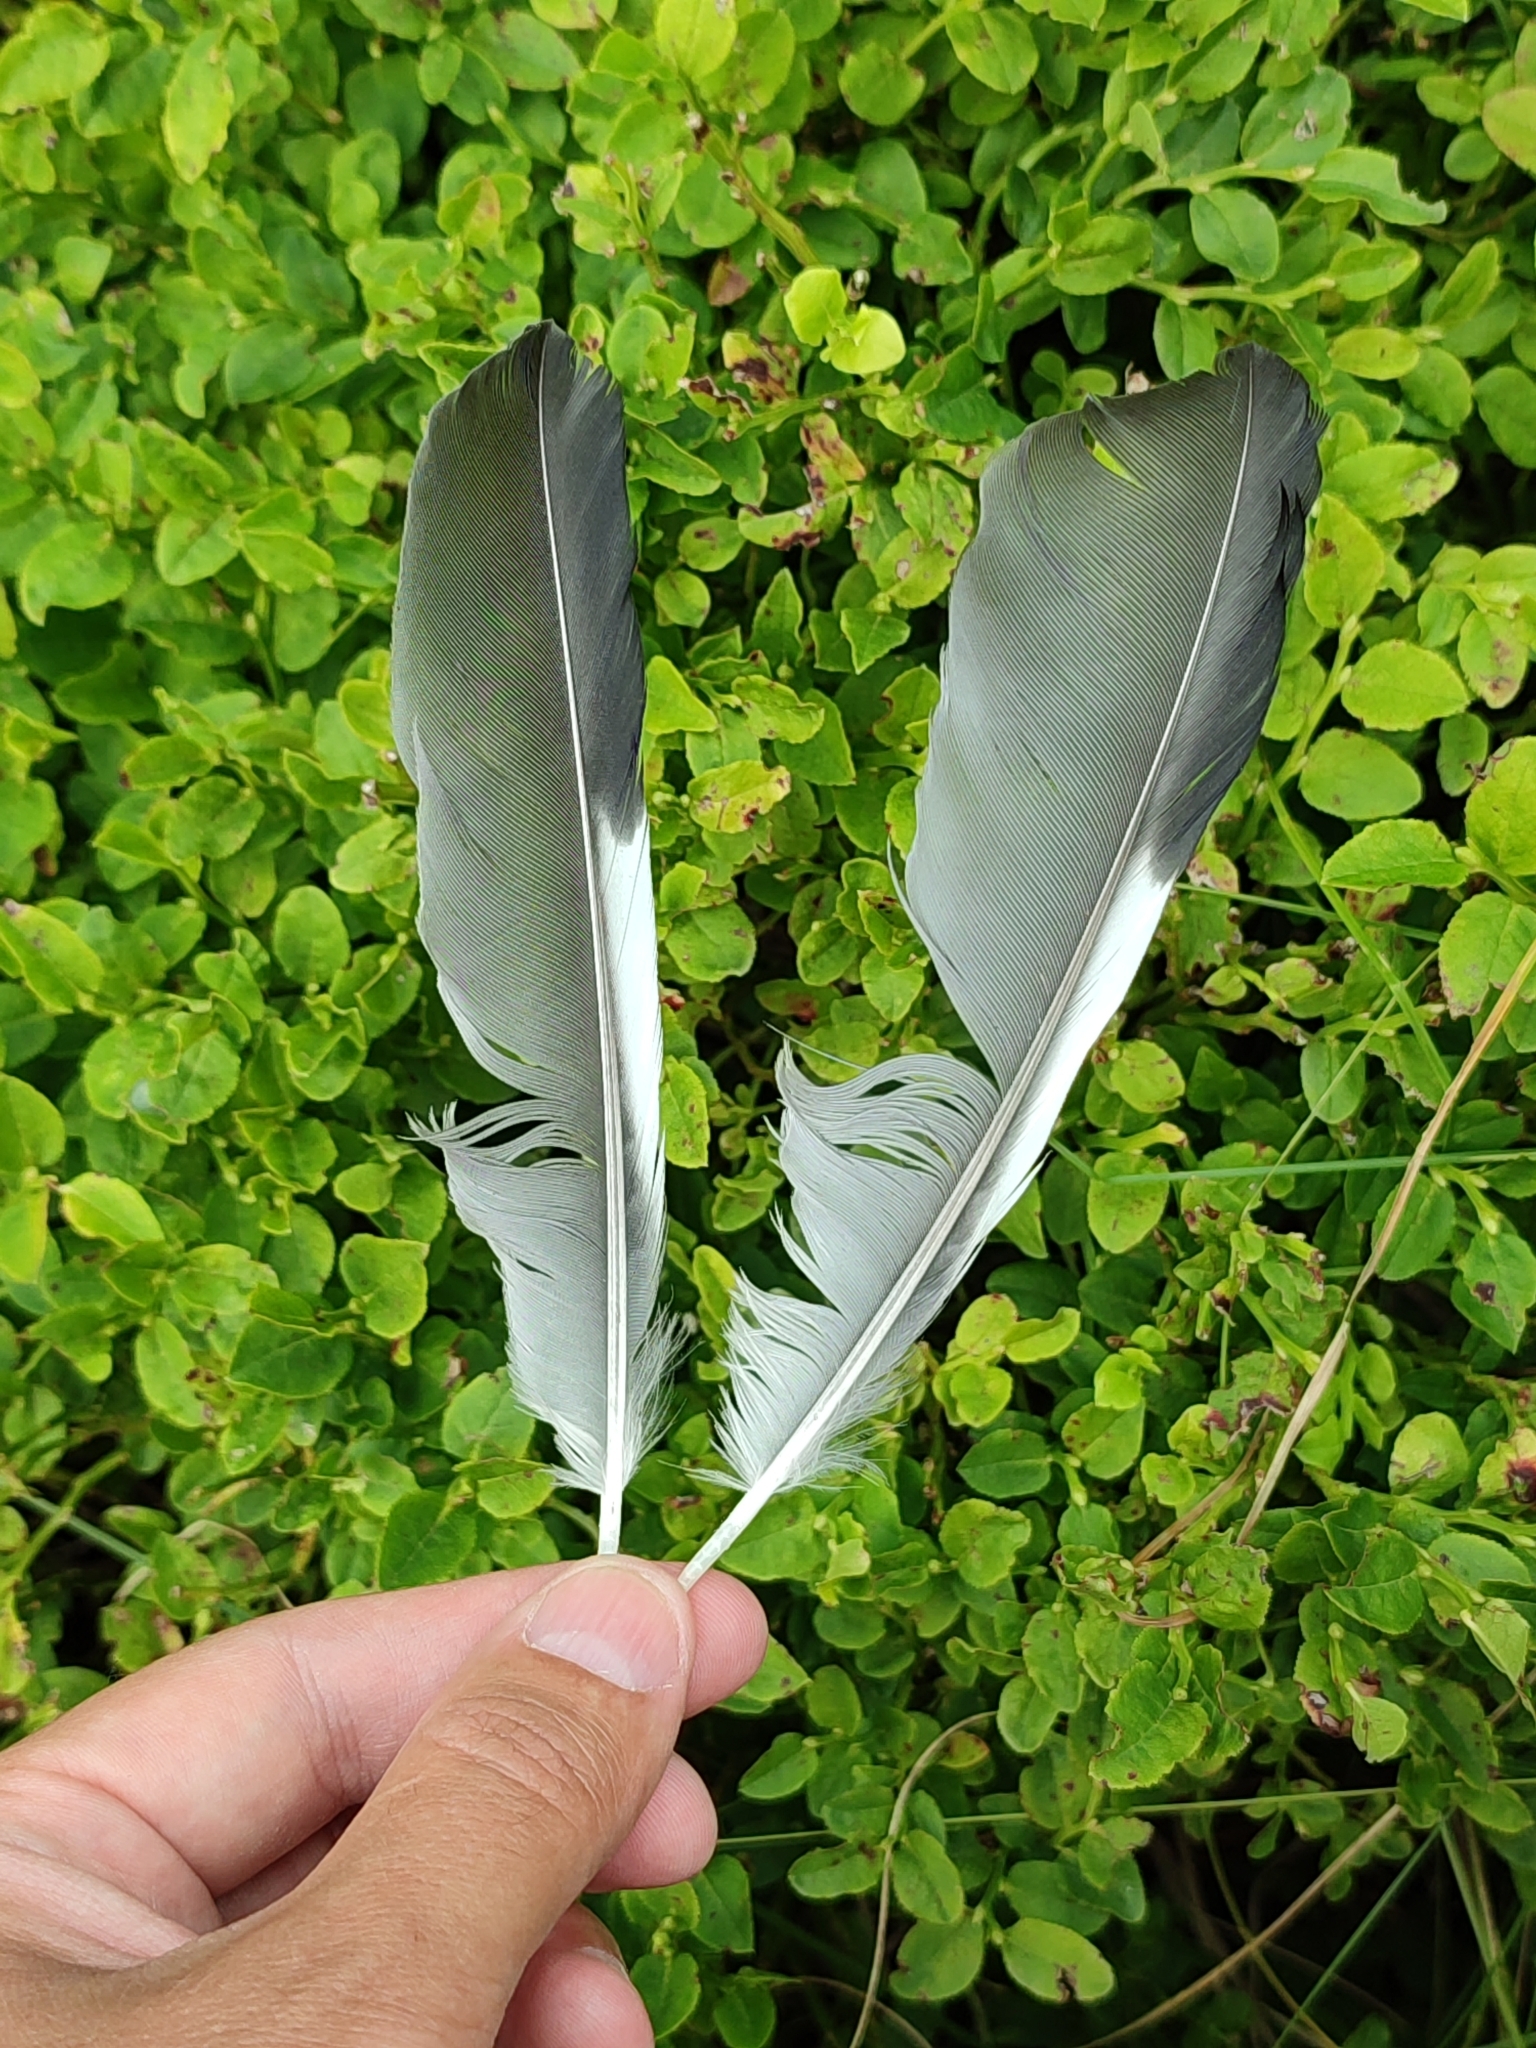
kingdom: Animalia
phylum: Chordata
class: Aves
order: Passeriformes
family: Corvidae
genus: Garrulus
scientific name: Garrulus glandarius
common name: Eurasian jay
